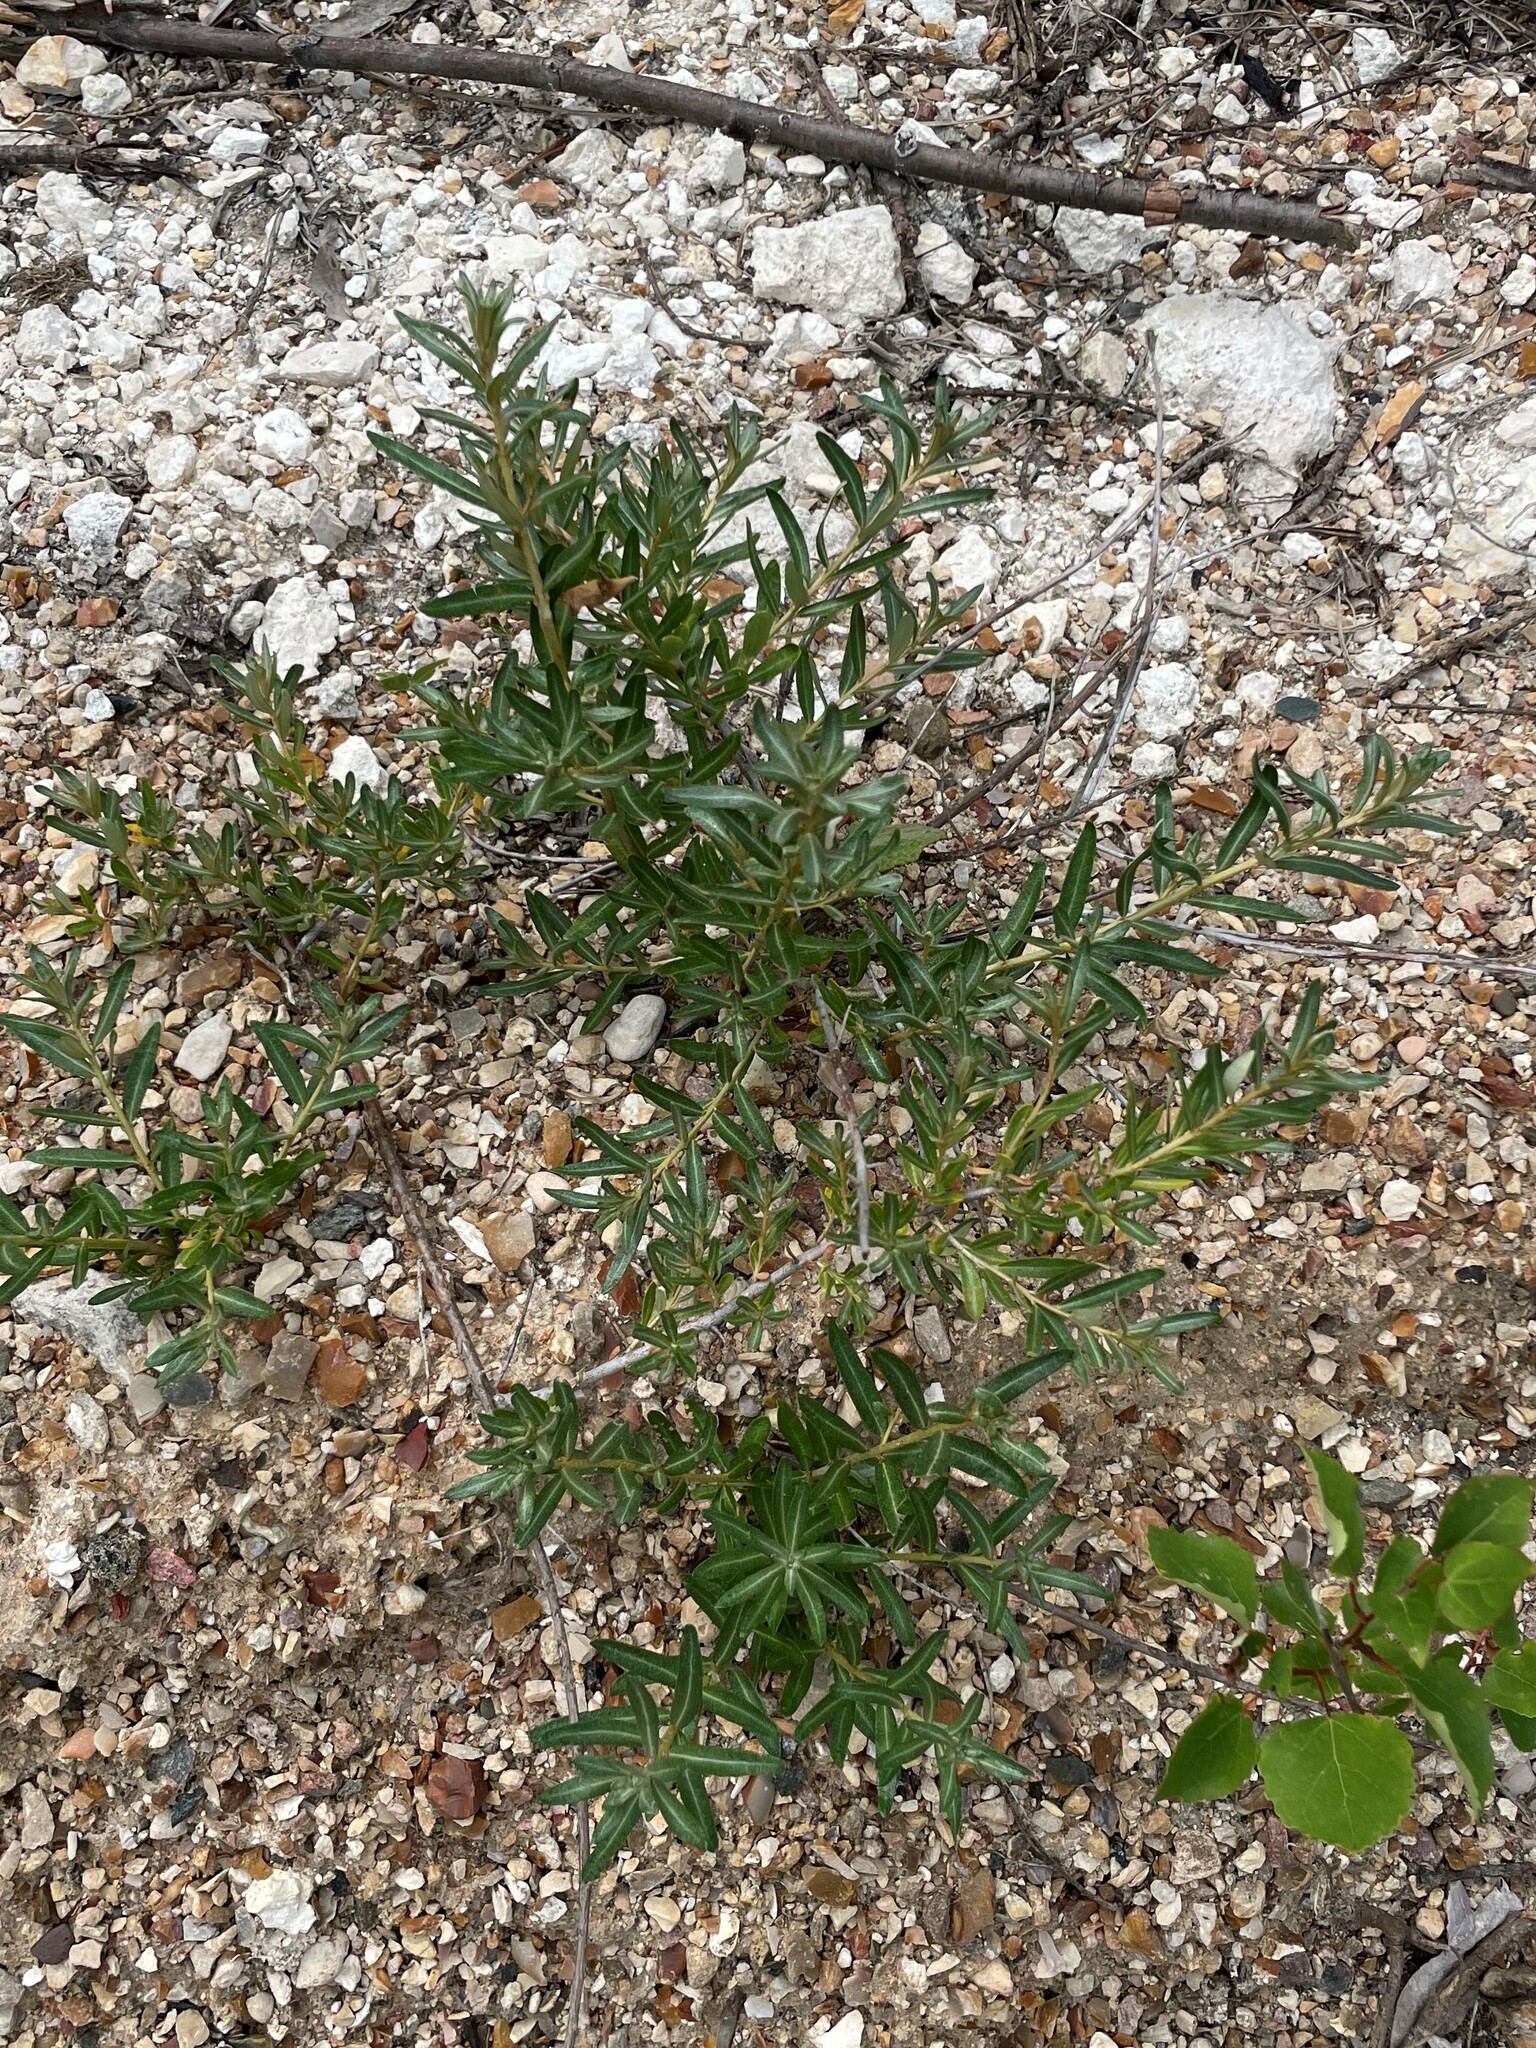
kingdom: Plantae
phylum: Tracheophyta
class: Magnoliopsida
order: Rosales
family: Elaeagnaceae
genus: Hippophae
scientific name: Hippophae rhamnoides
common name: Sea-buckthorn
